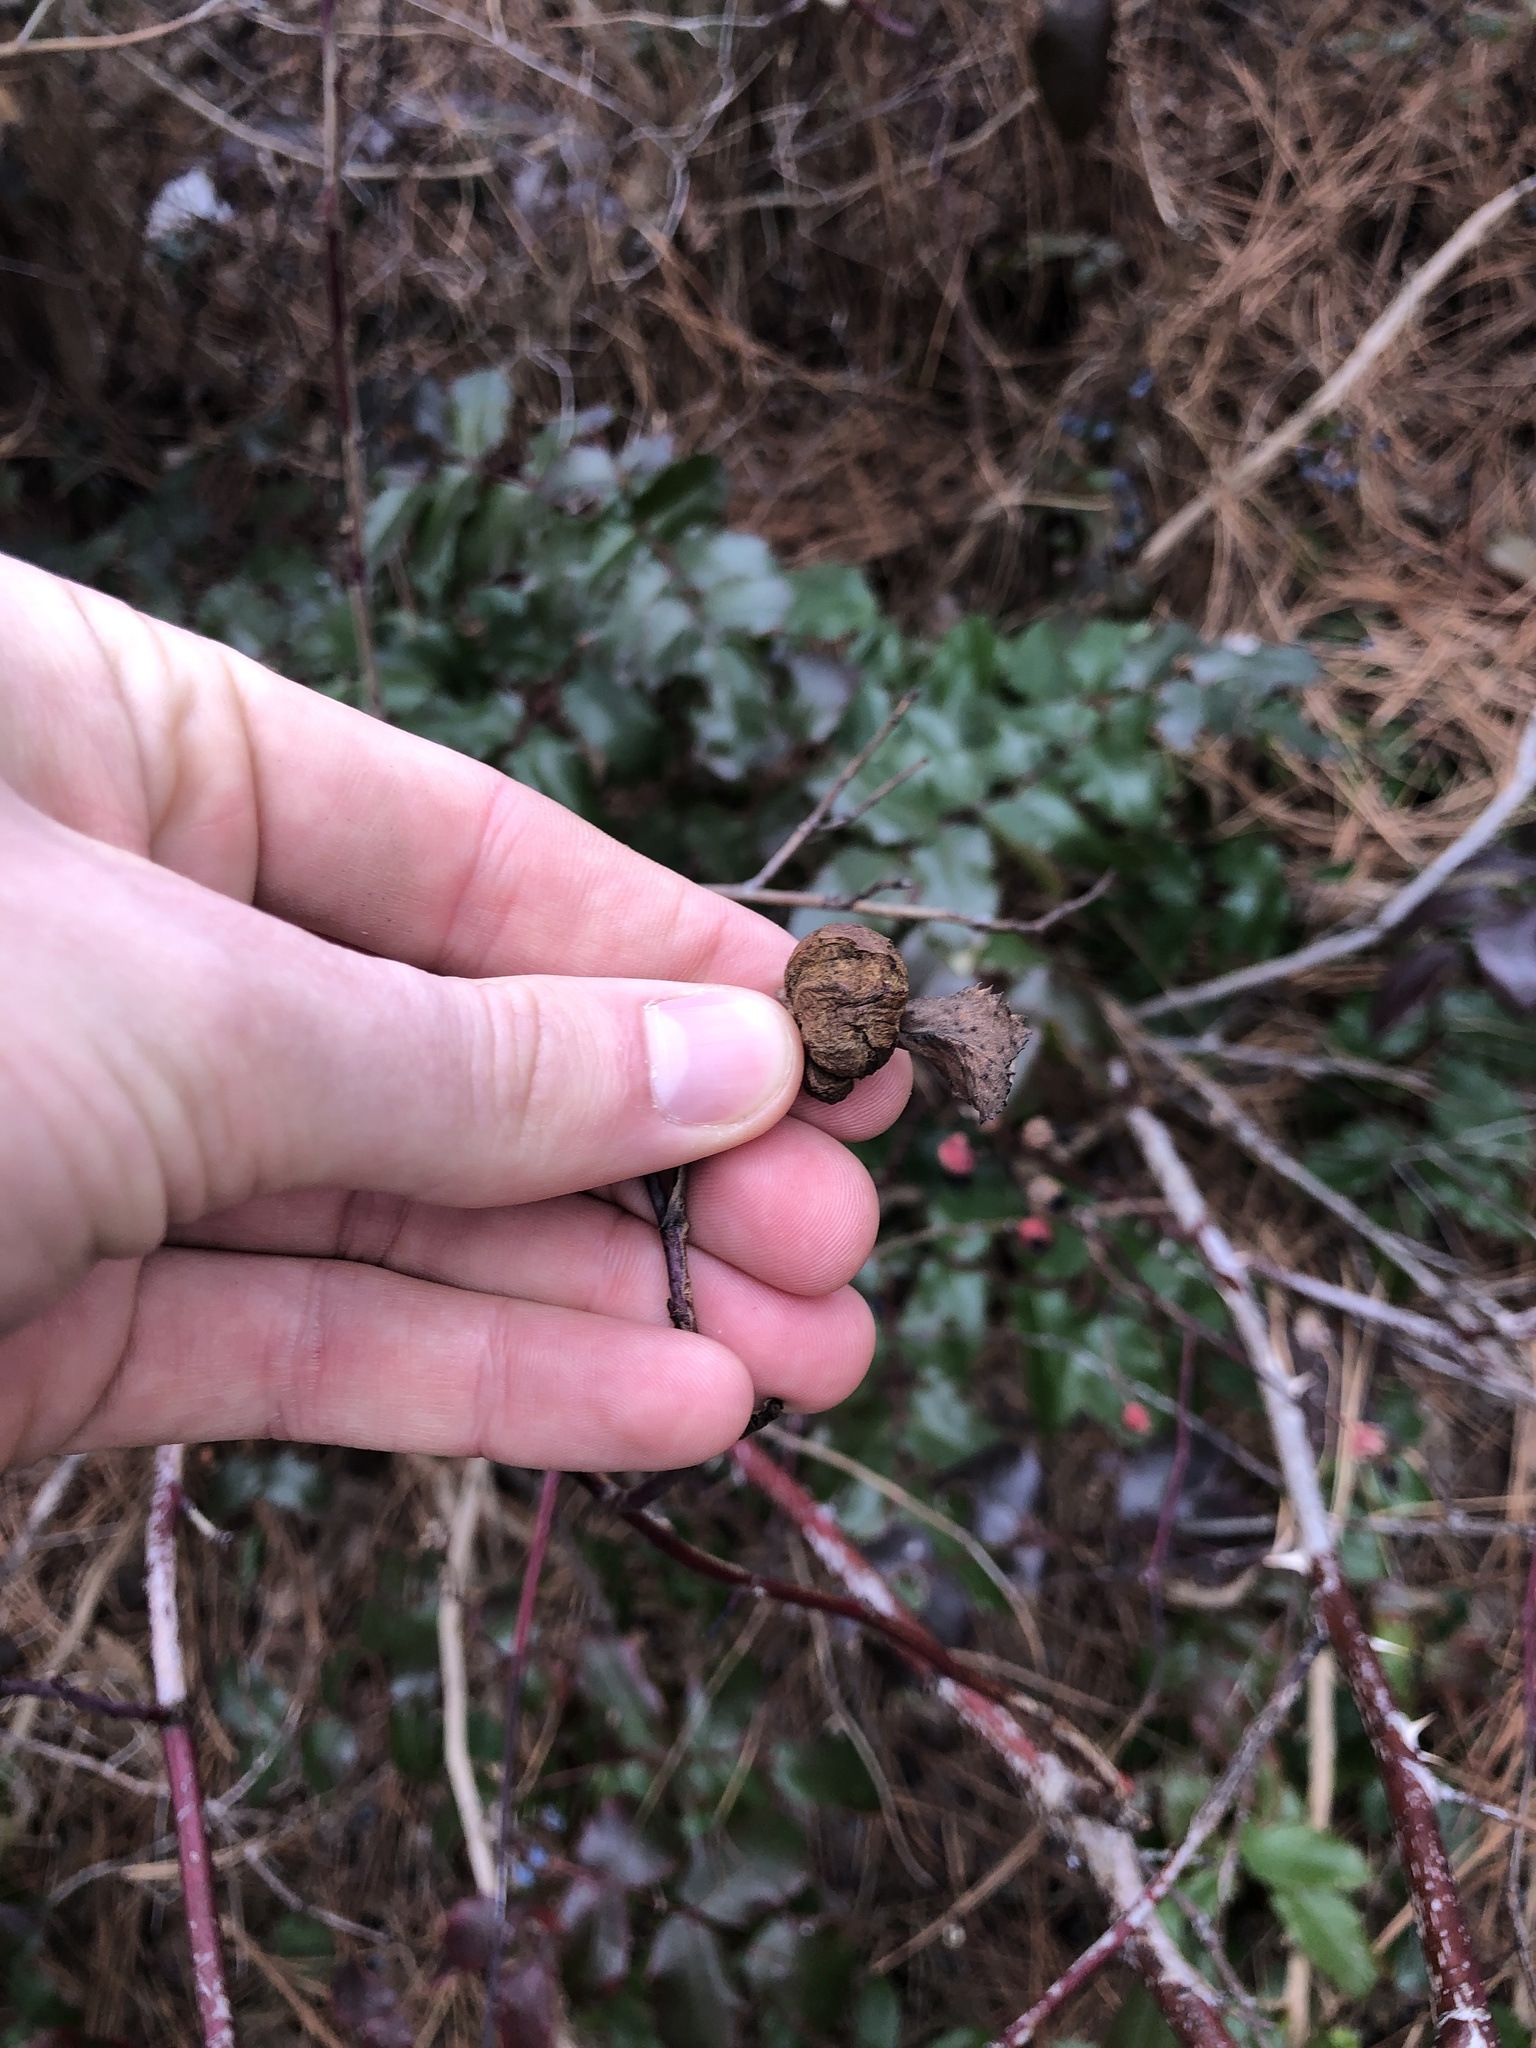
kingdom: Animalia
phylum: Arthropoda
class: Insecta
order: Hymenoptera
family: Cynipidae
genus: Diplolepis
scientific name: Diplolepis variabilis
